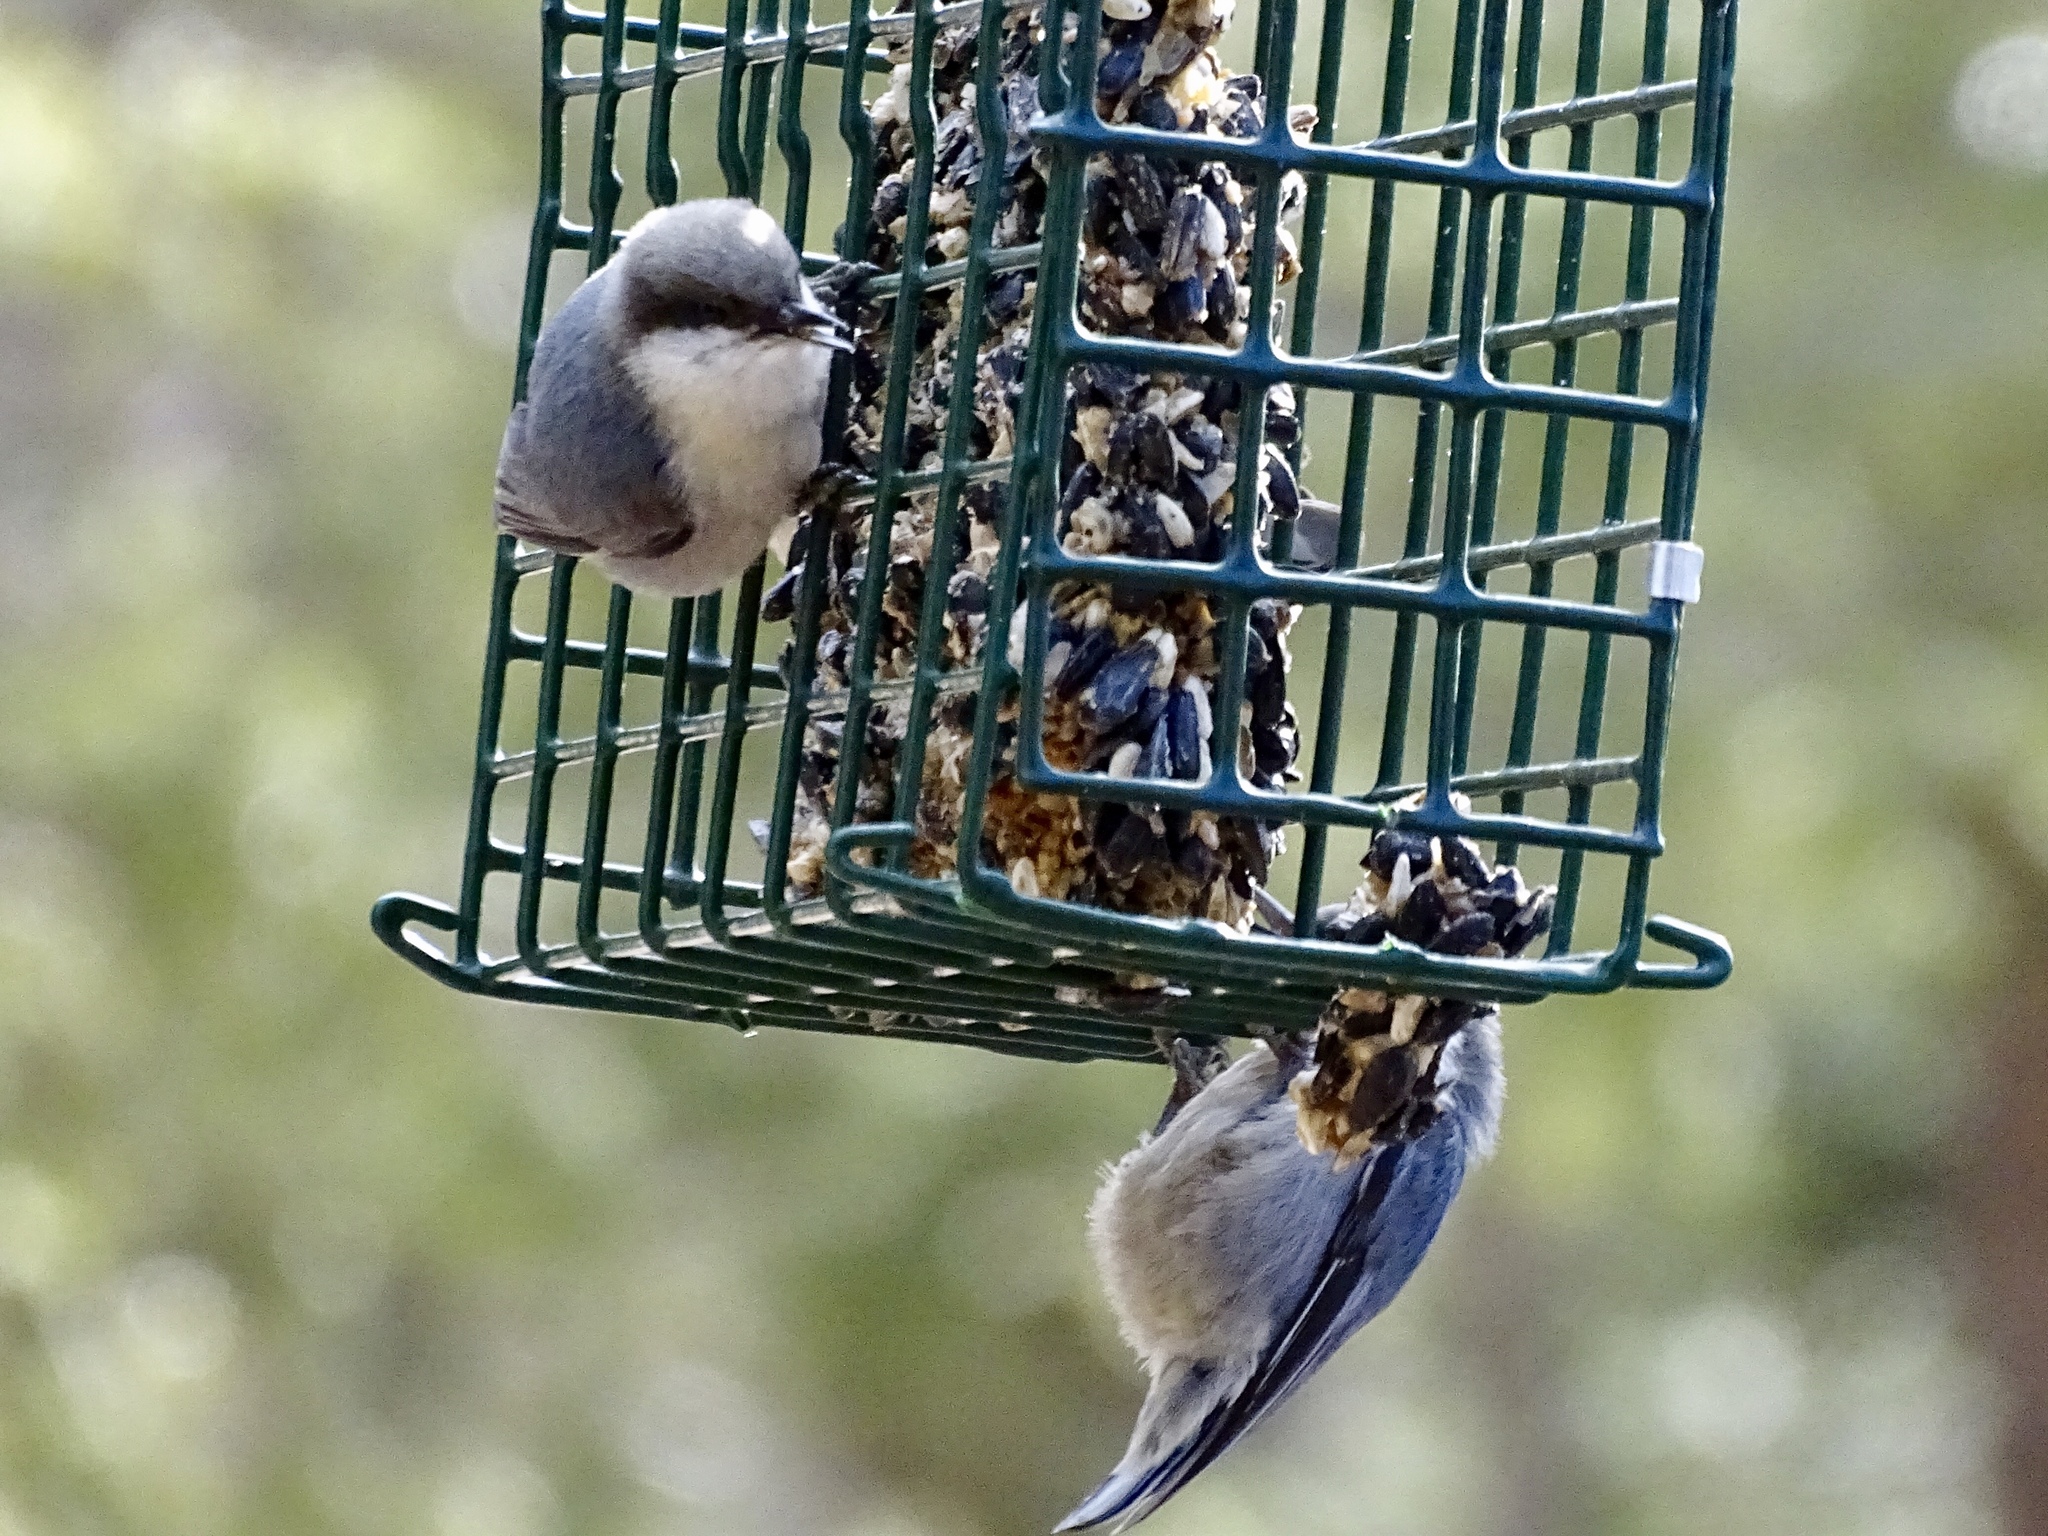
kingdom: Animalia
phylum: Chordata
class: Aves
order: Passeriformes
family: Sittidae
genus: Sitta
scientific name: Sitta pygmaea
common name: Pygmy nuthatch
